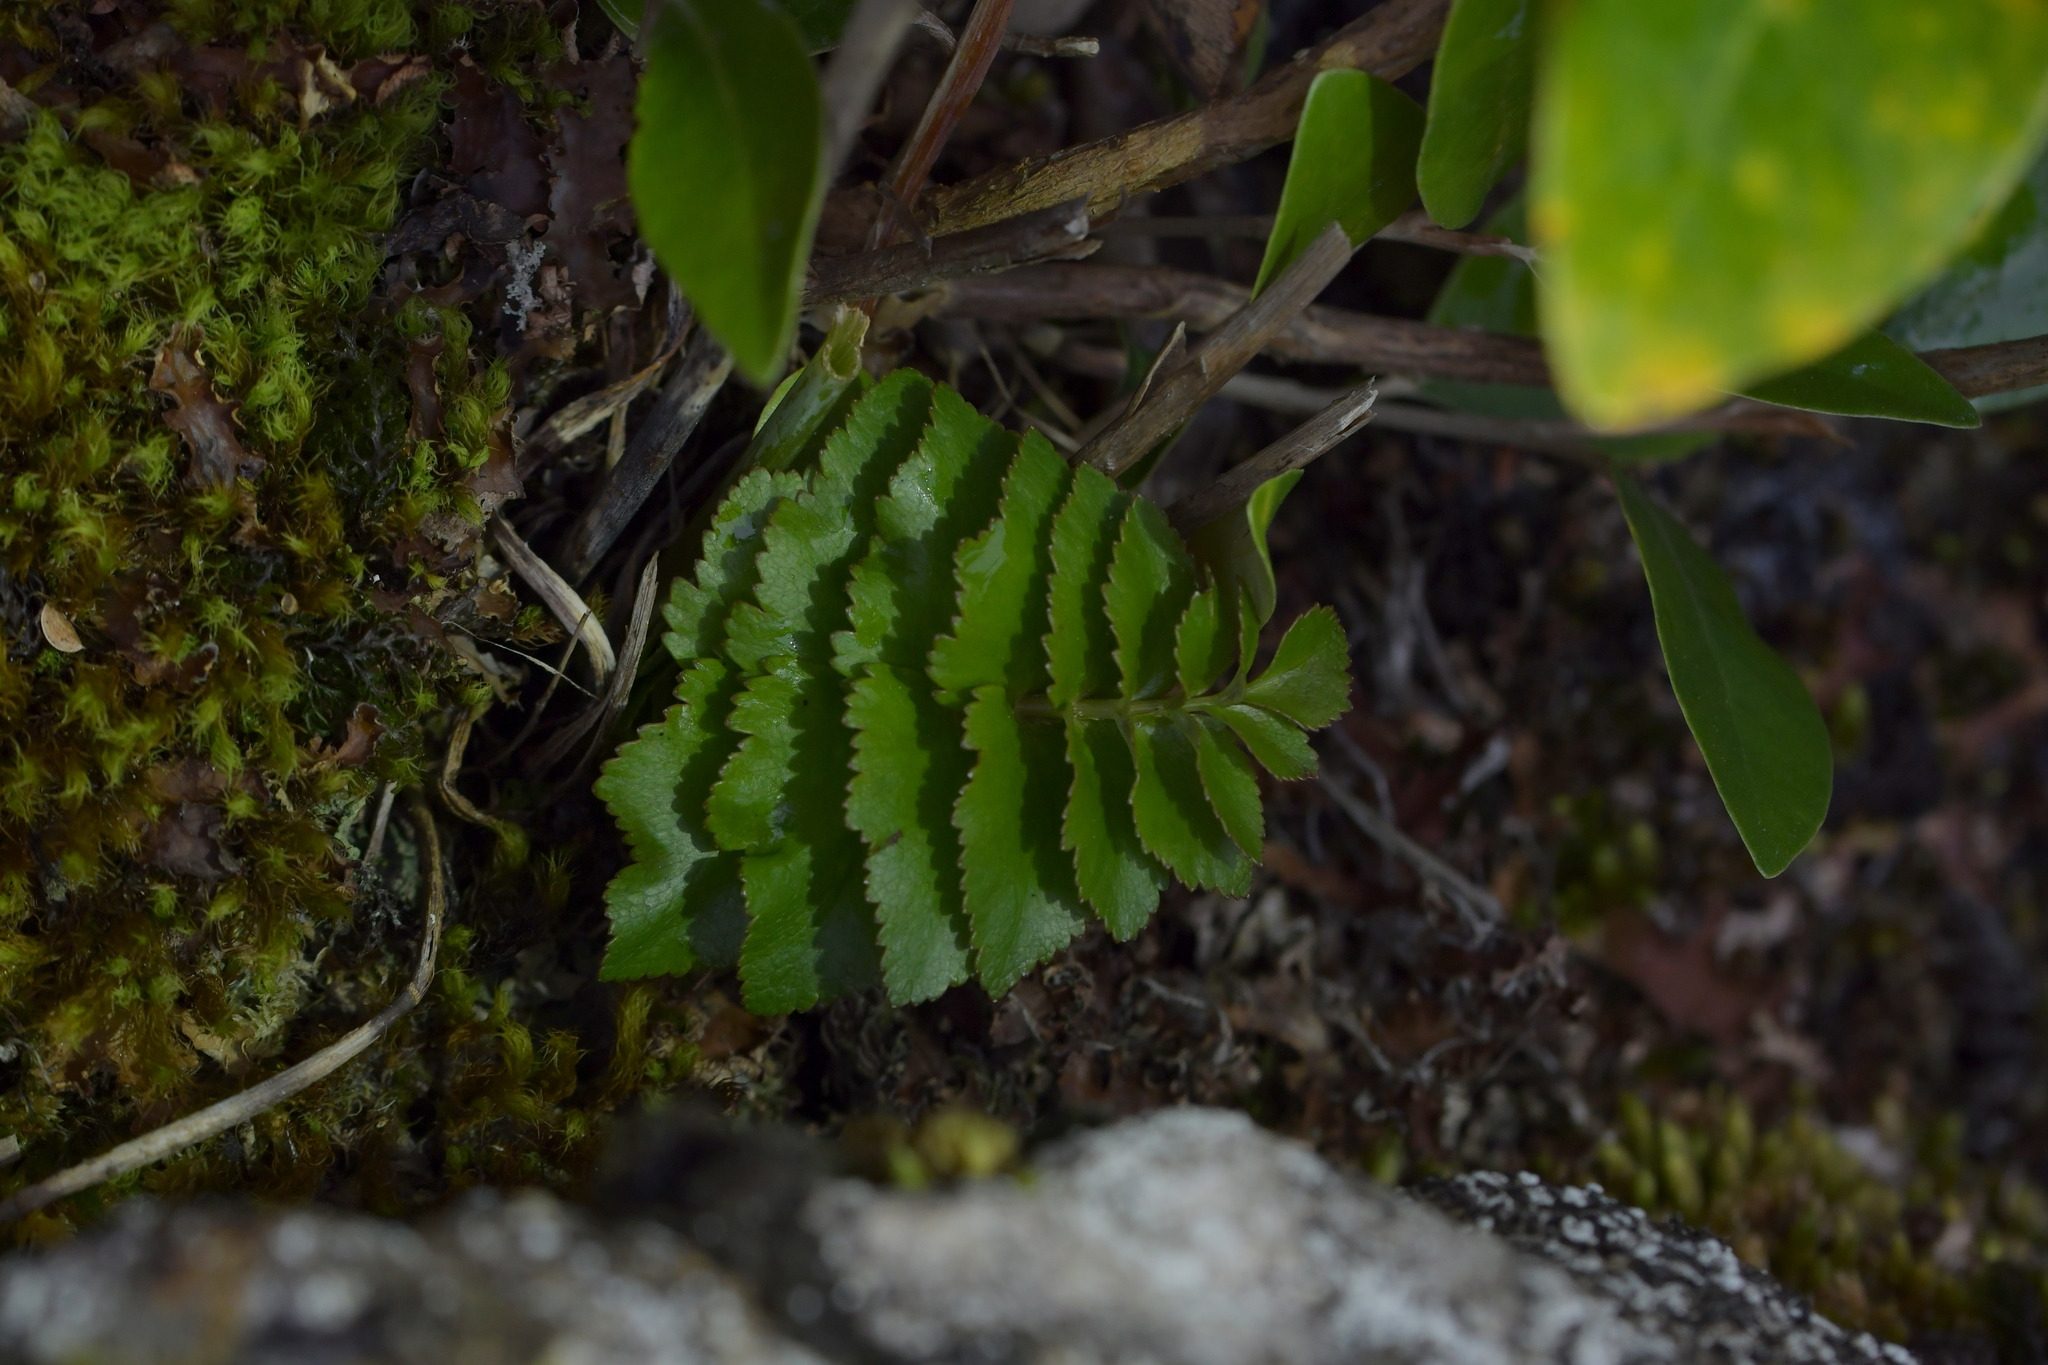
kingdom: Plantae
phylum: Tracheophyta
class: Magnoliopsida
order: Apiales
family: Apiaceae
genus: Gingidia
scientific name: Gingidia montana
